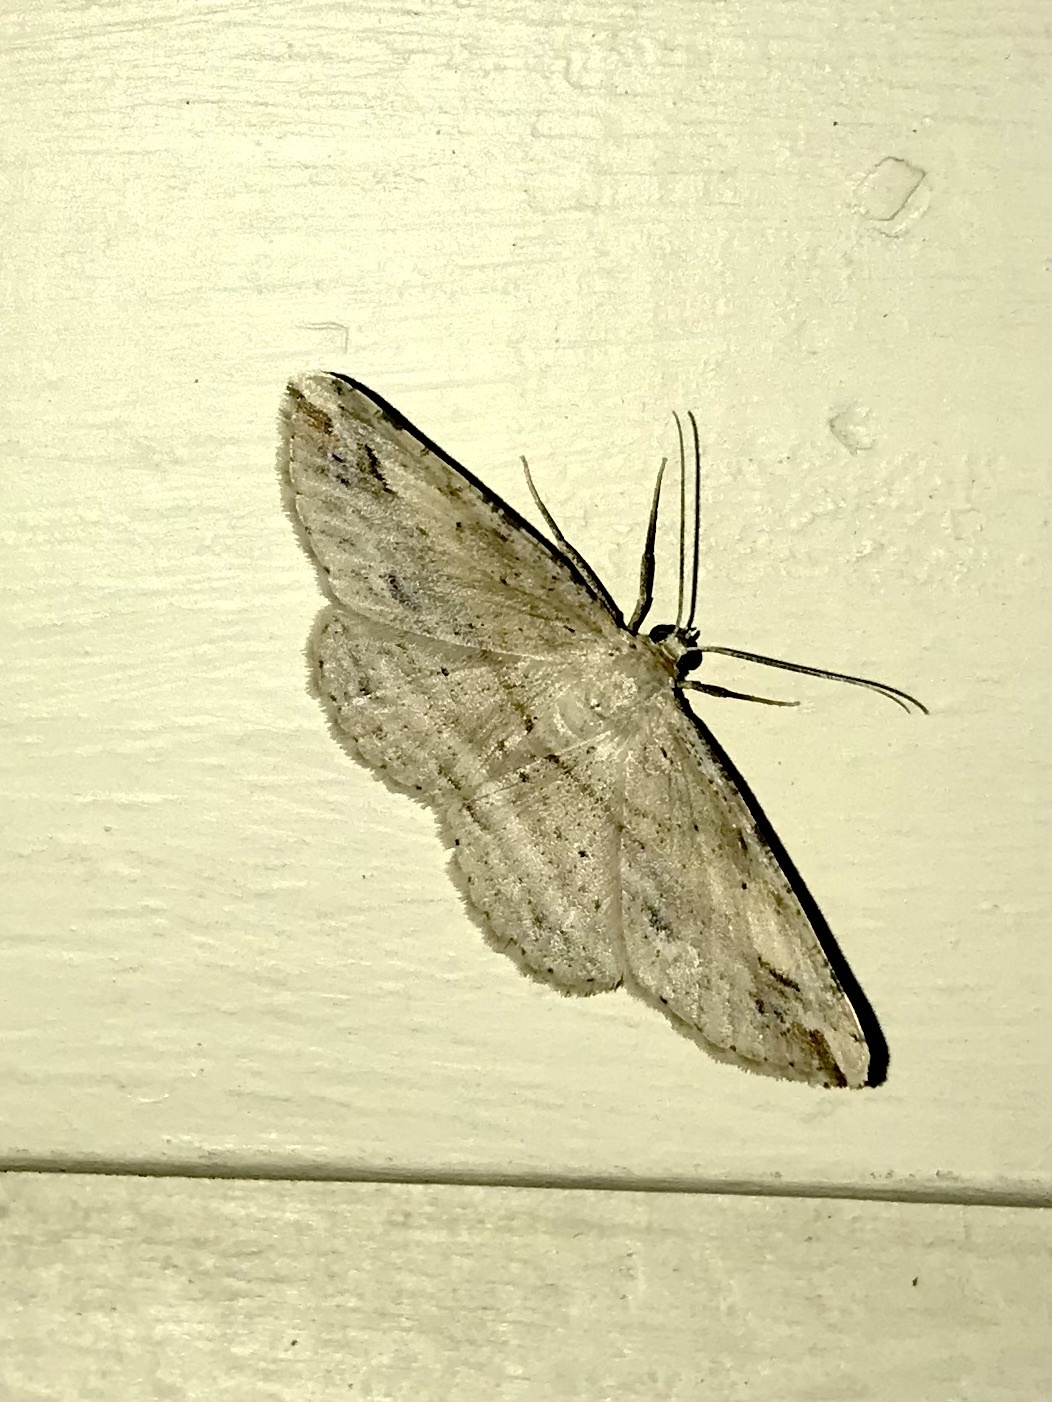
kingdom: Animalia
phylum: Arthropoda
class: Insecta
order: Lepidoptera
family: Geometridae
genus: Syneora
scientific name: Syneora lithina
